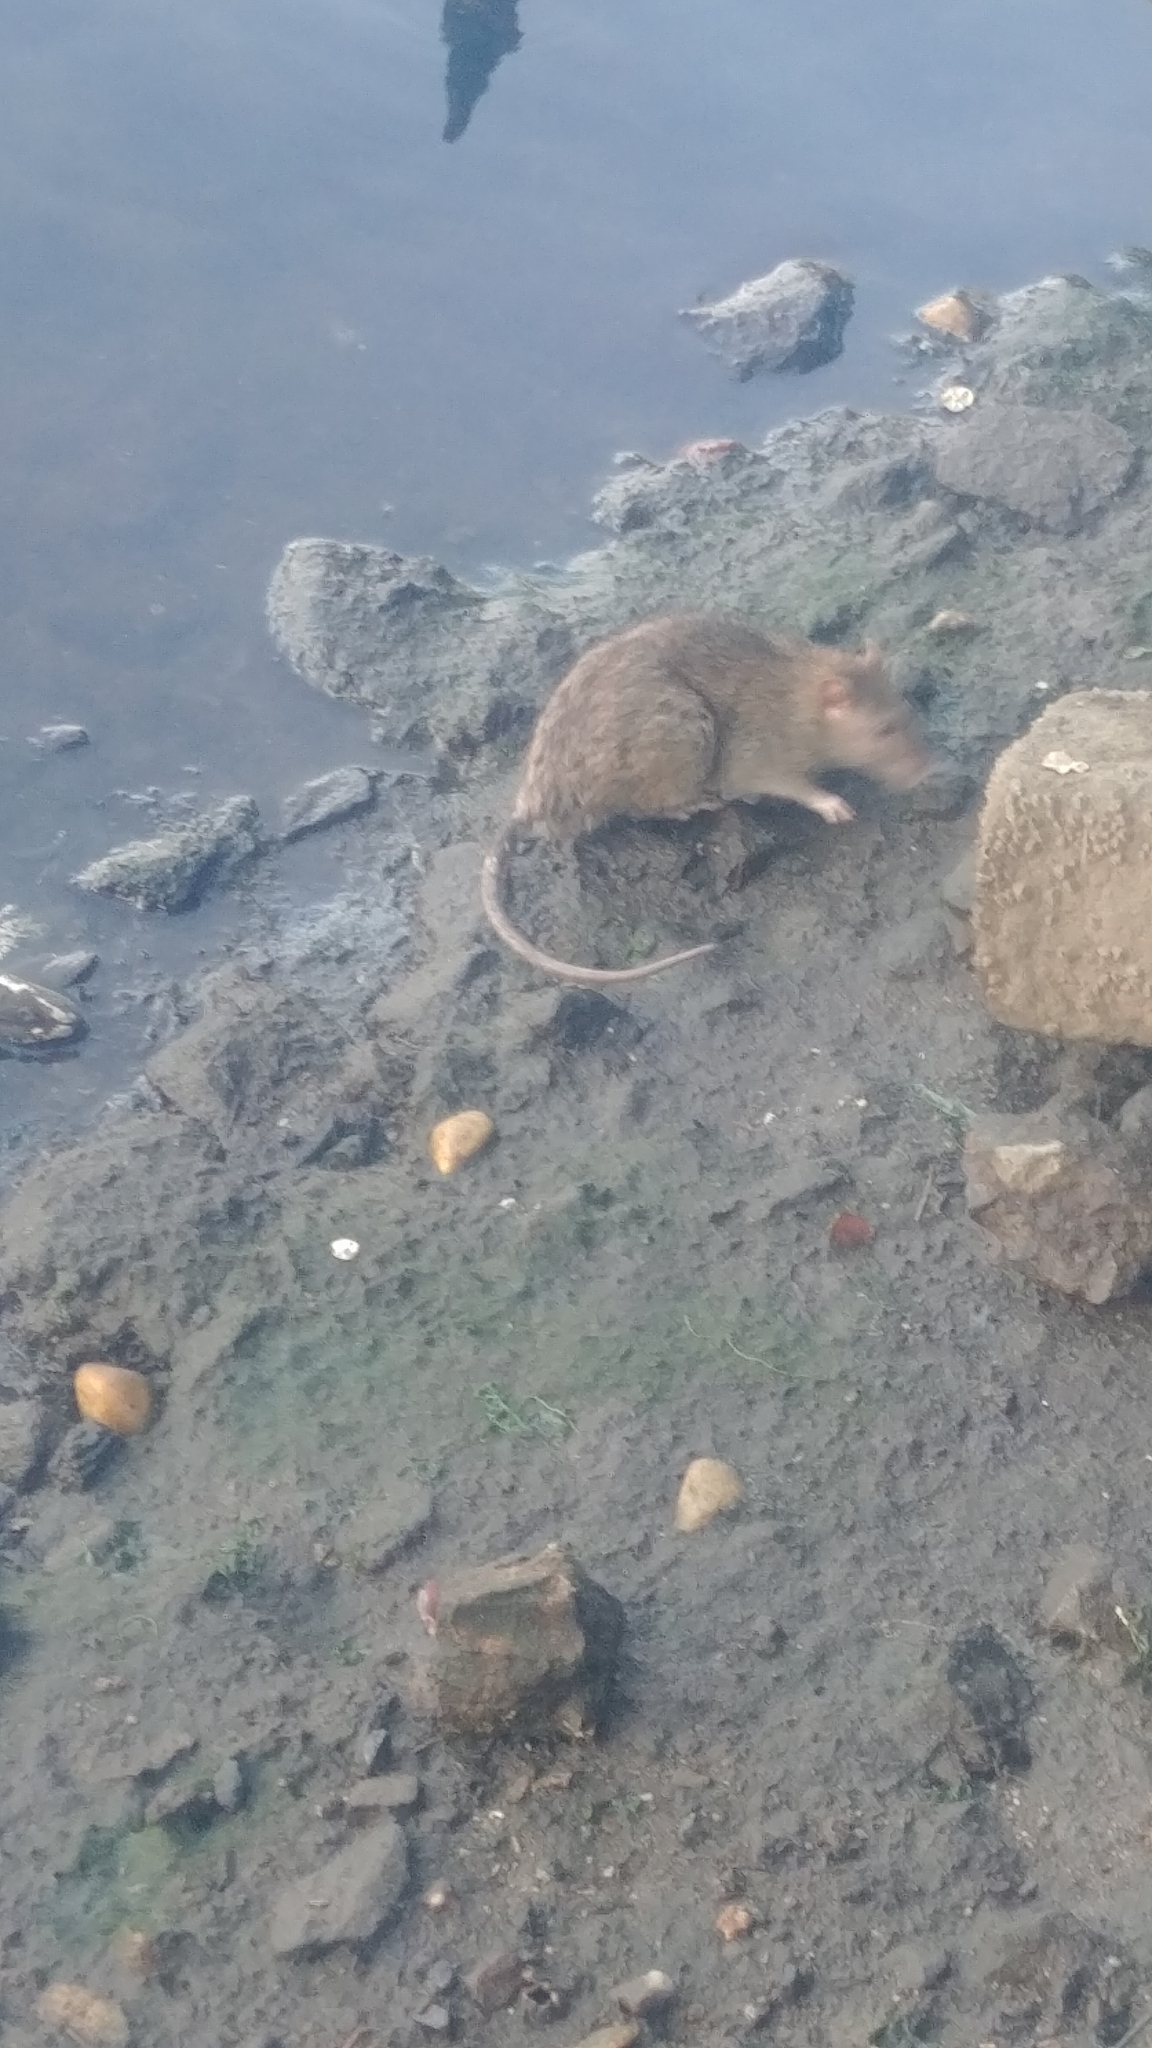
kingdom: Animalia
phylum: Chordata
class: Mammalia
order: Rodentia
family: Muridae
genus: Rattus
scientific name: Rattus norvegicus
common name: Brown rat
